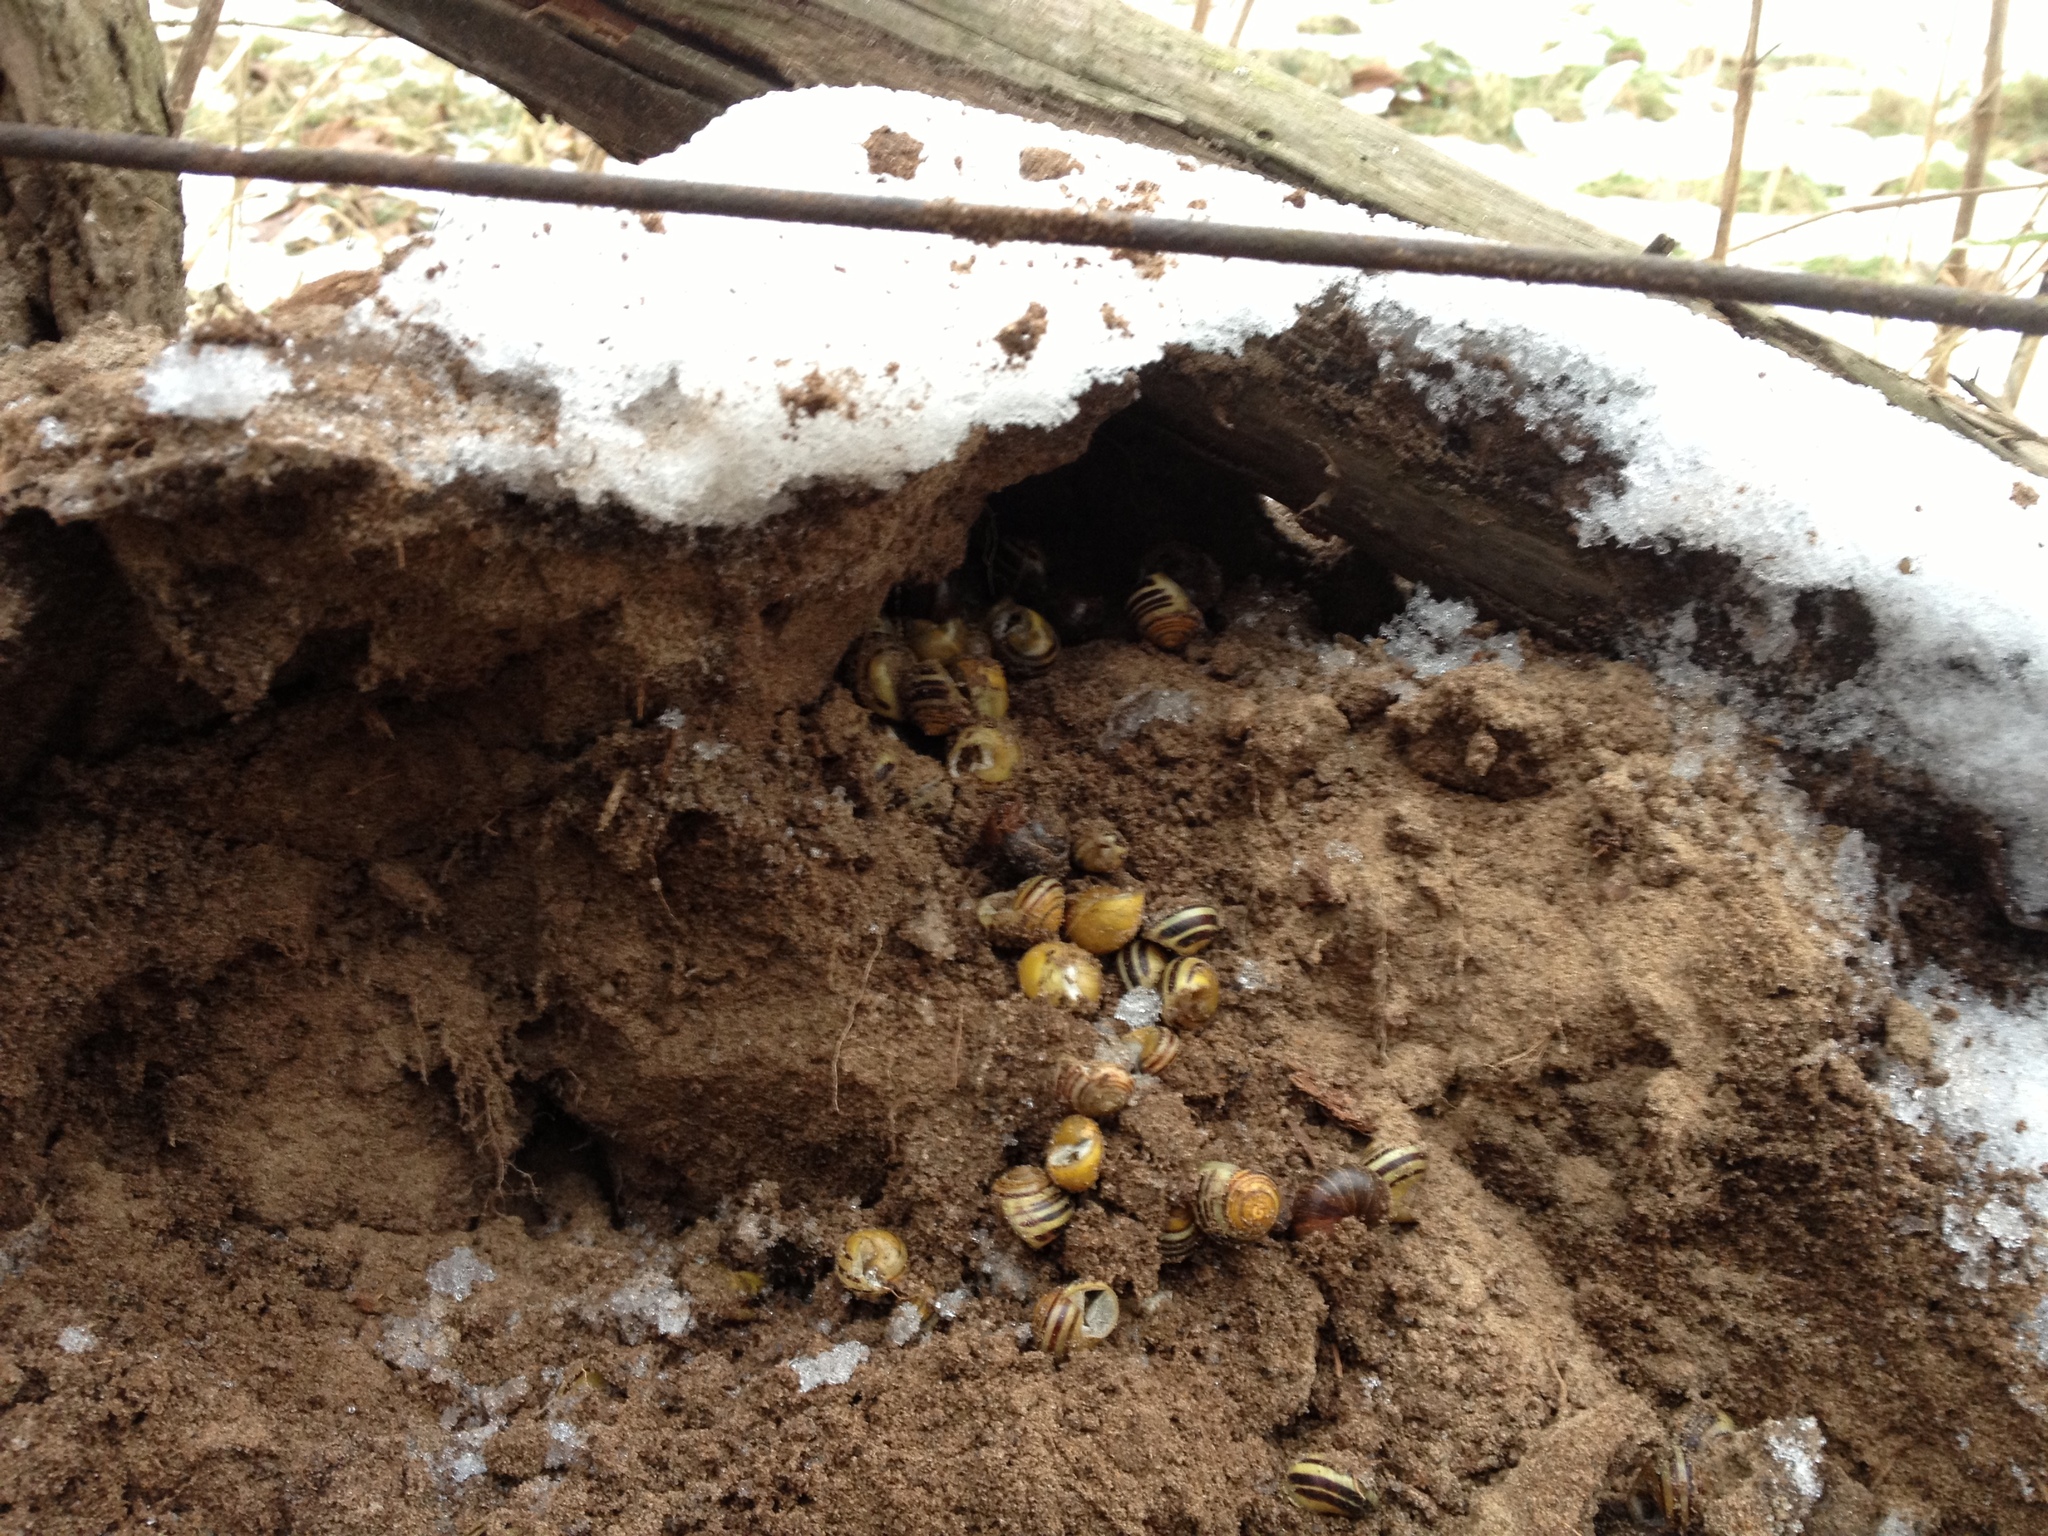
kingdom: Animalia
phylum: Mollusca
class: Gastropoda
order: Stylommatophora
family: Helicidae
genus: Cepaea
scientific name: Cepaea
